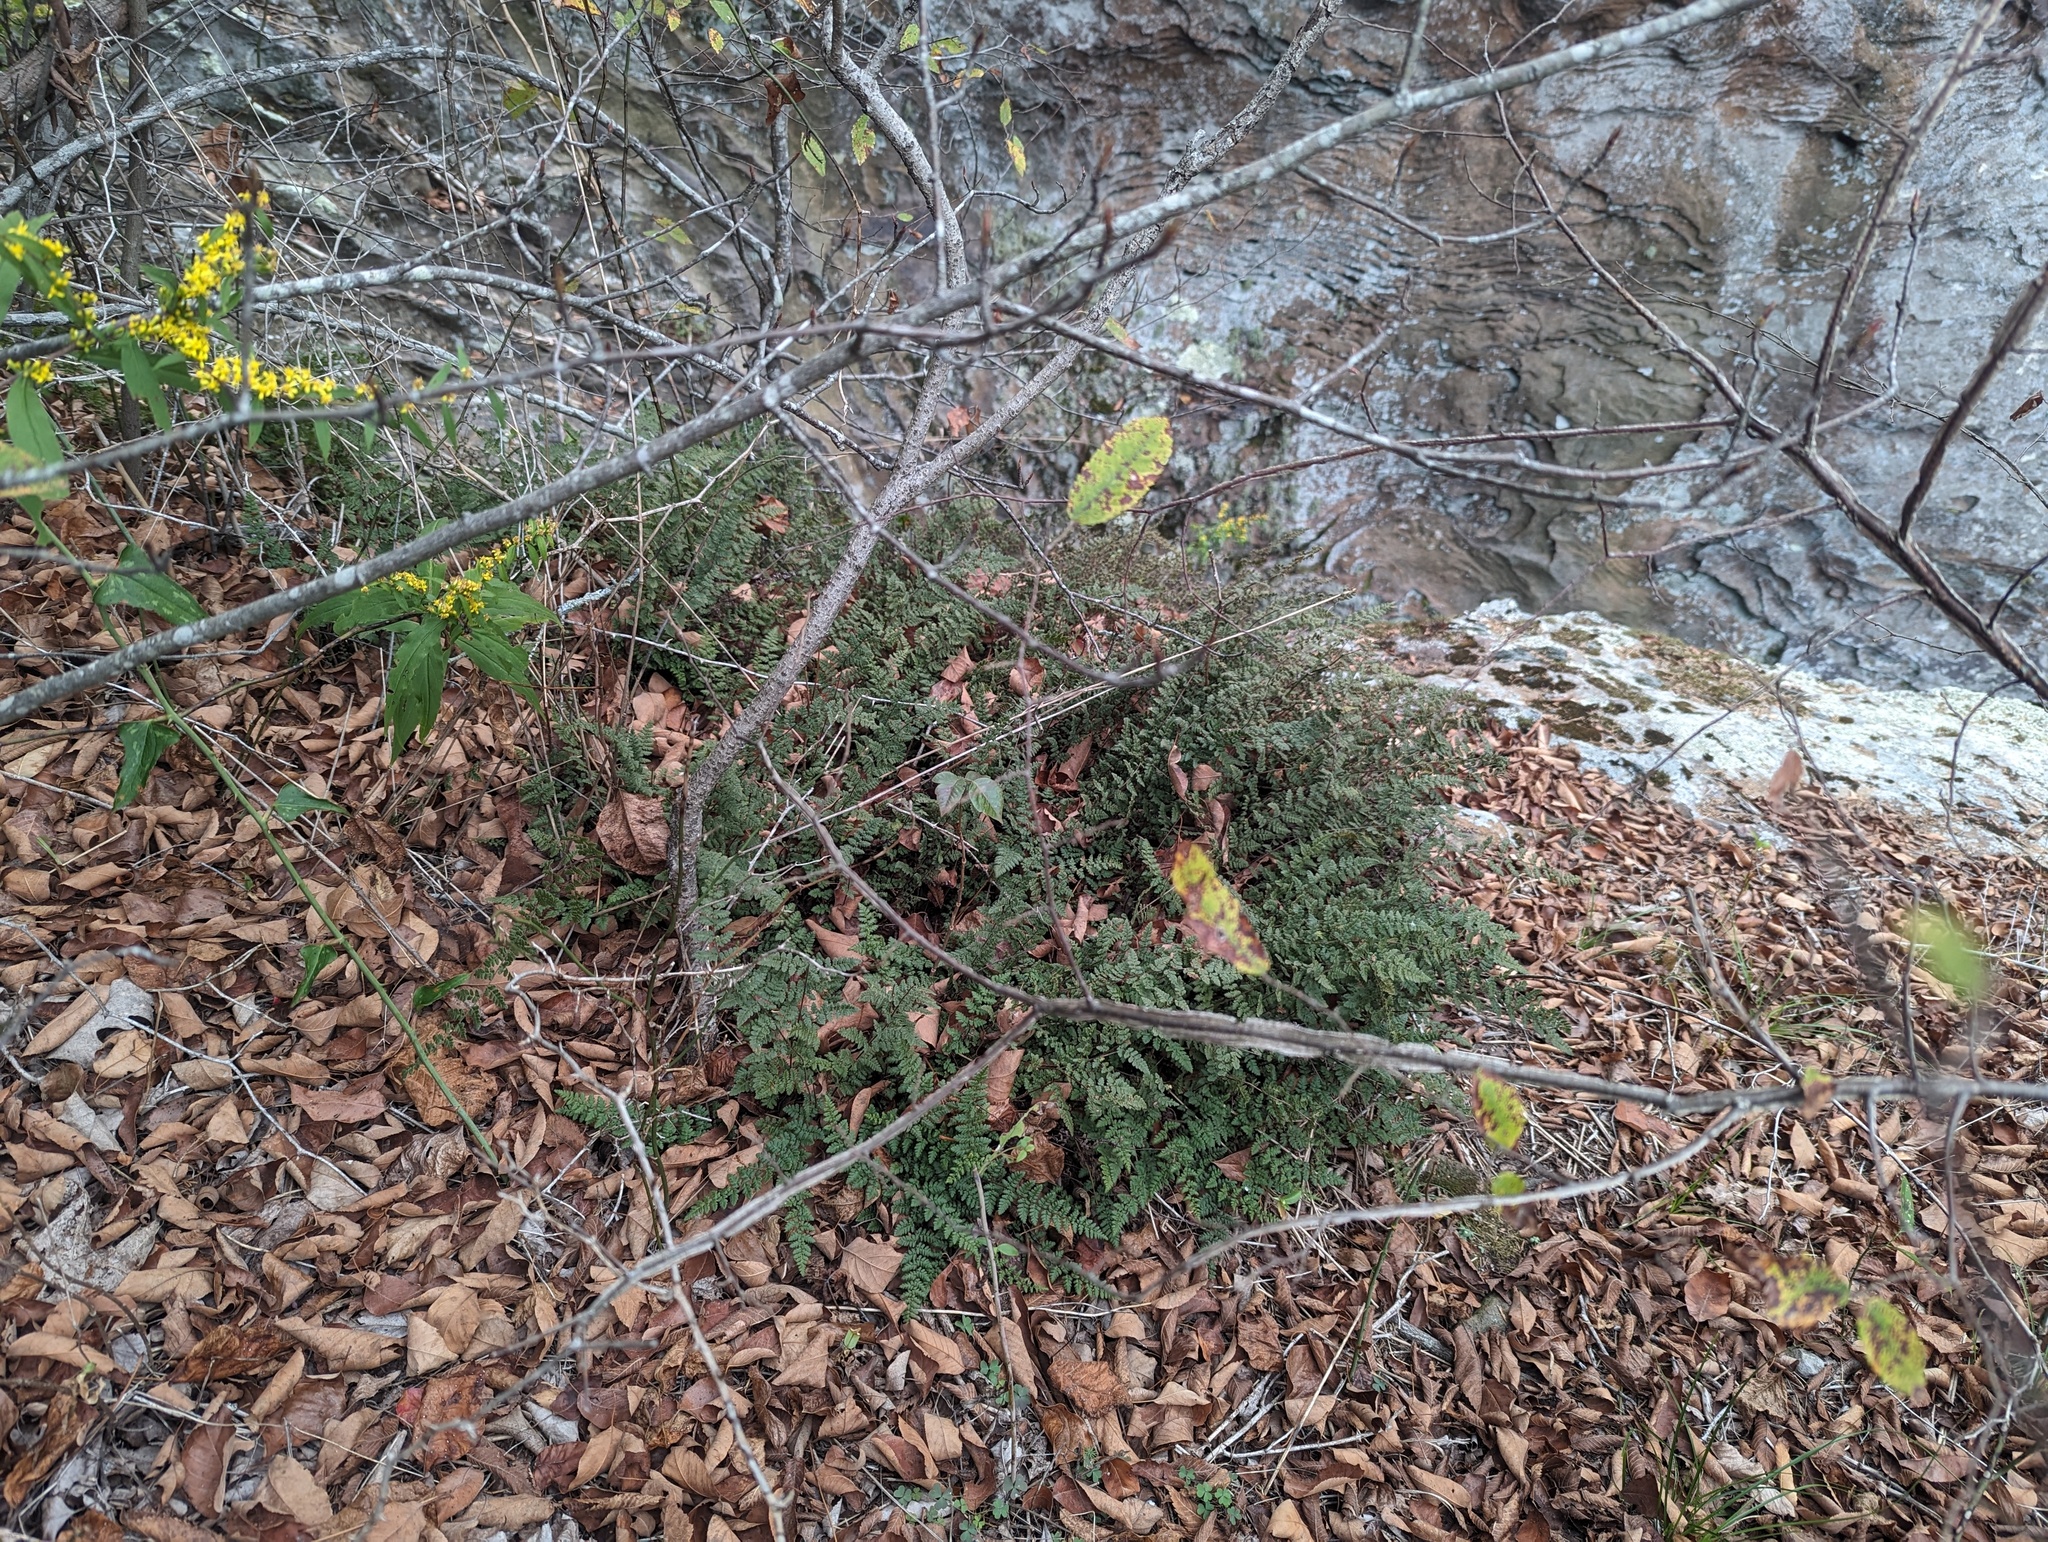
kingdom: Plantae
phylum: Tracheophyta
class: Polypodiopsida
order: Polypodiales
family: Pteridaceae
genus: Myriopteris
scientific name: Myriopteris lanosa
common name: Hairy lip fern
